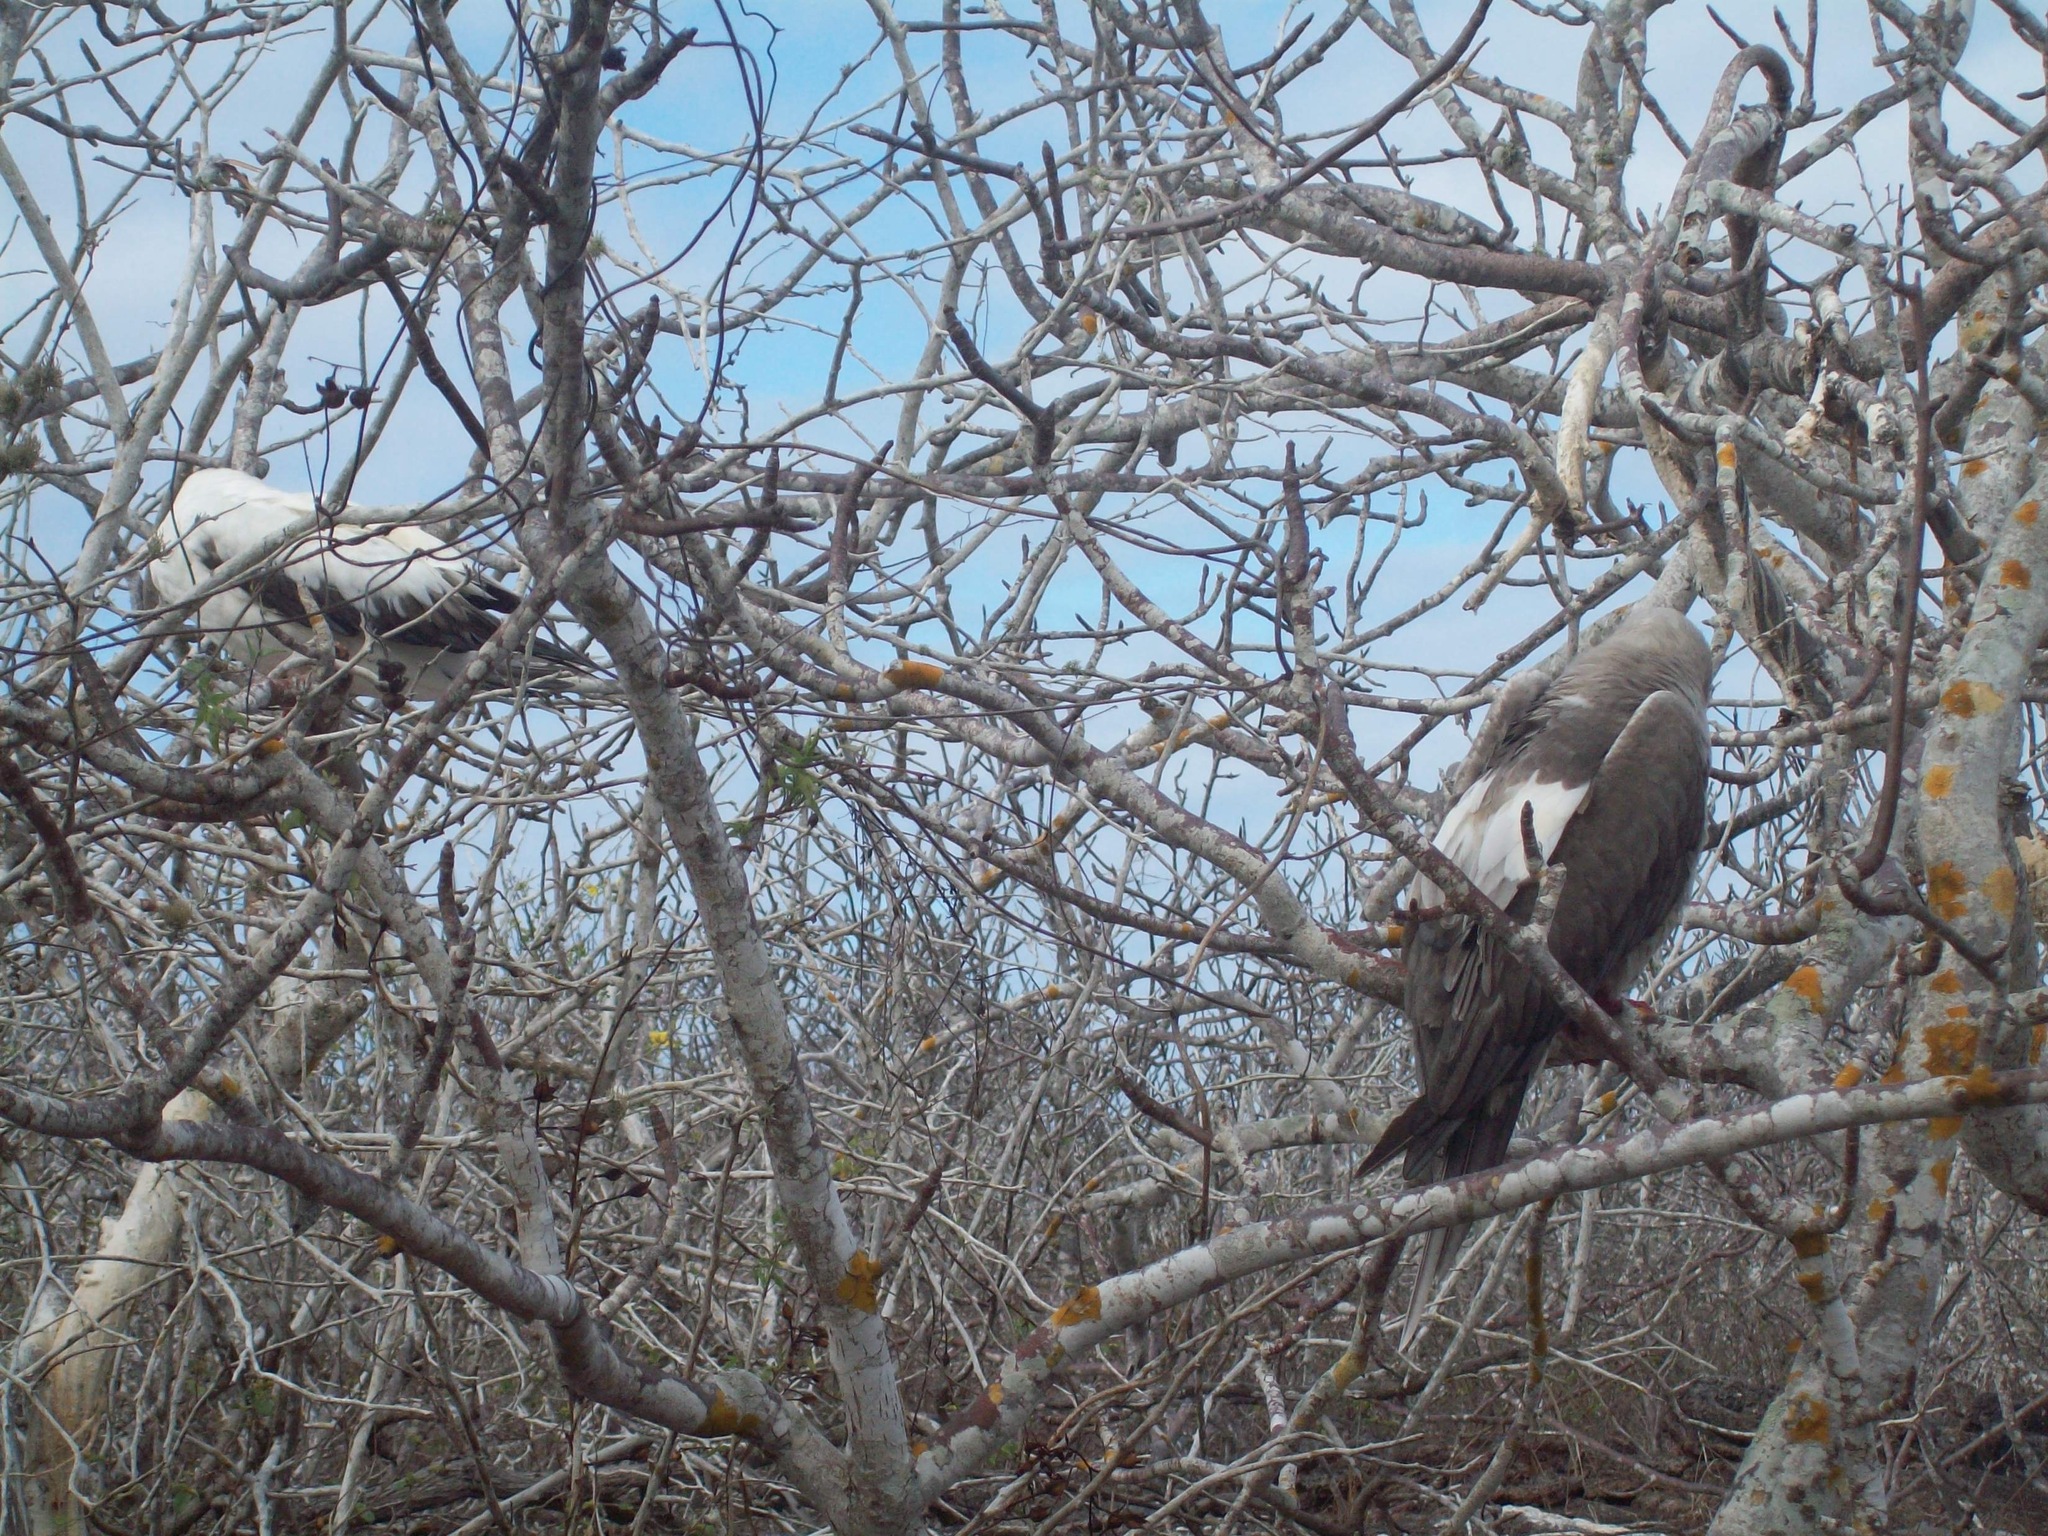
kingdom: Animalia
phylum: Chordata
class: Aves
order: Suliformes
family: Sulidae
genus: Sula
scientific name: Sula sula
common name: Red-footed booby
